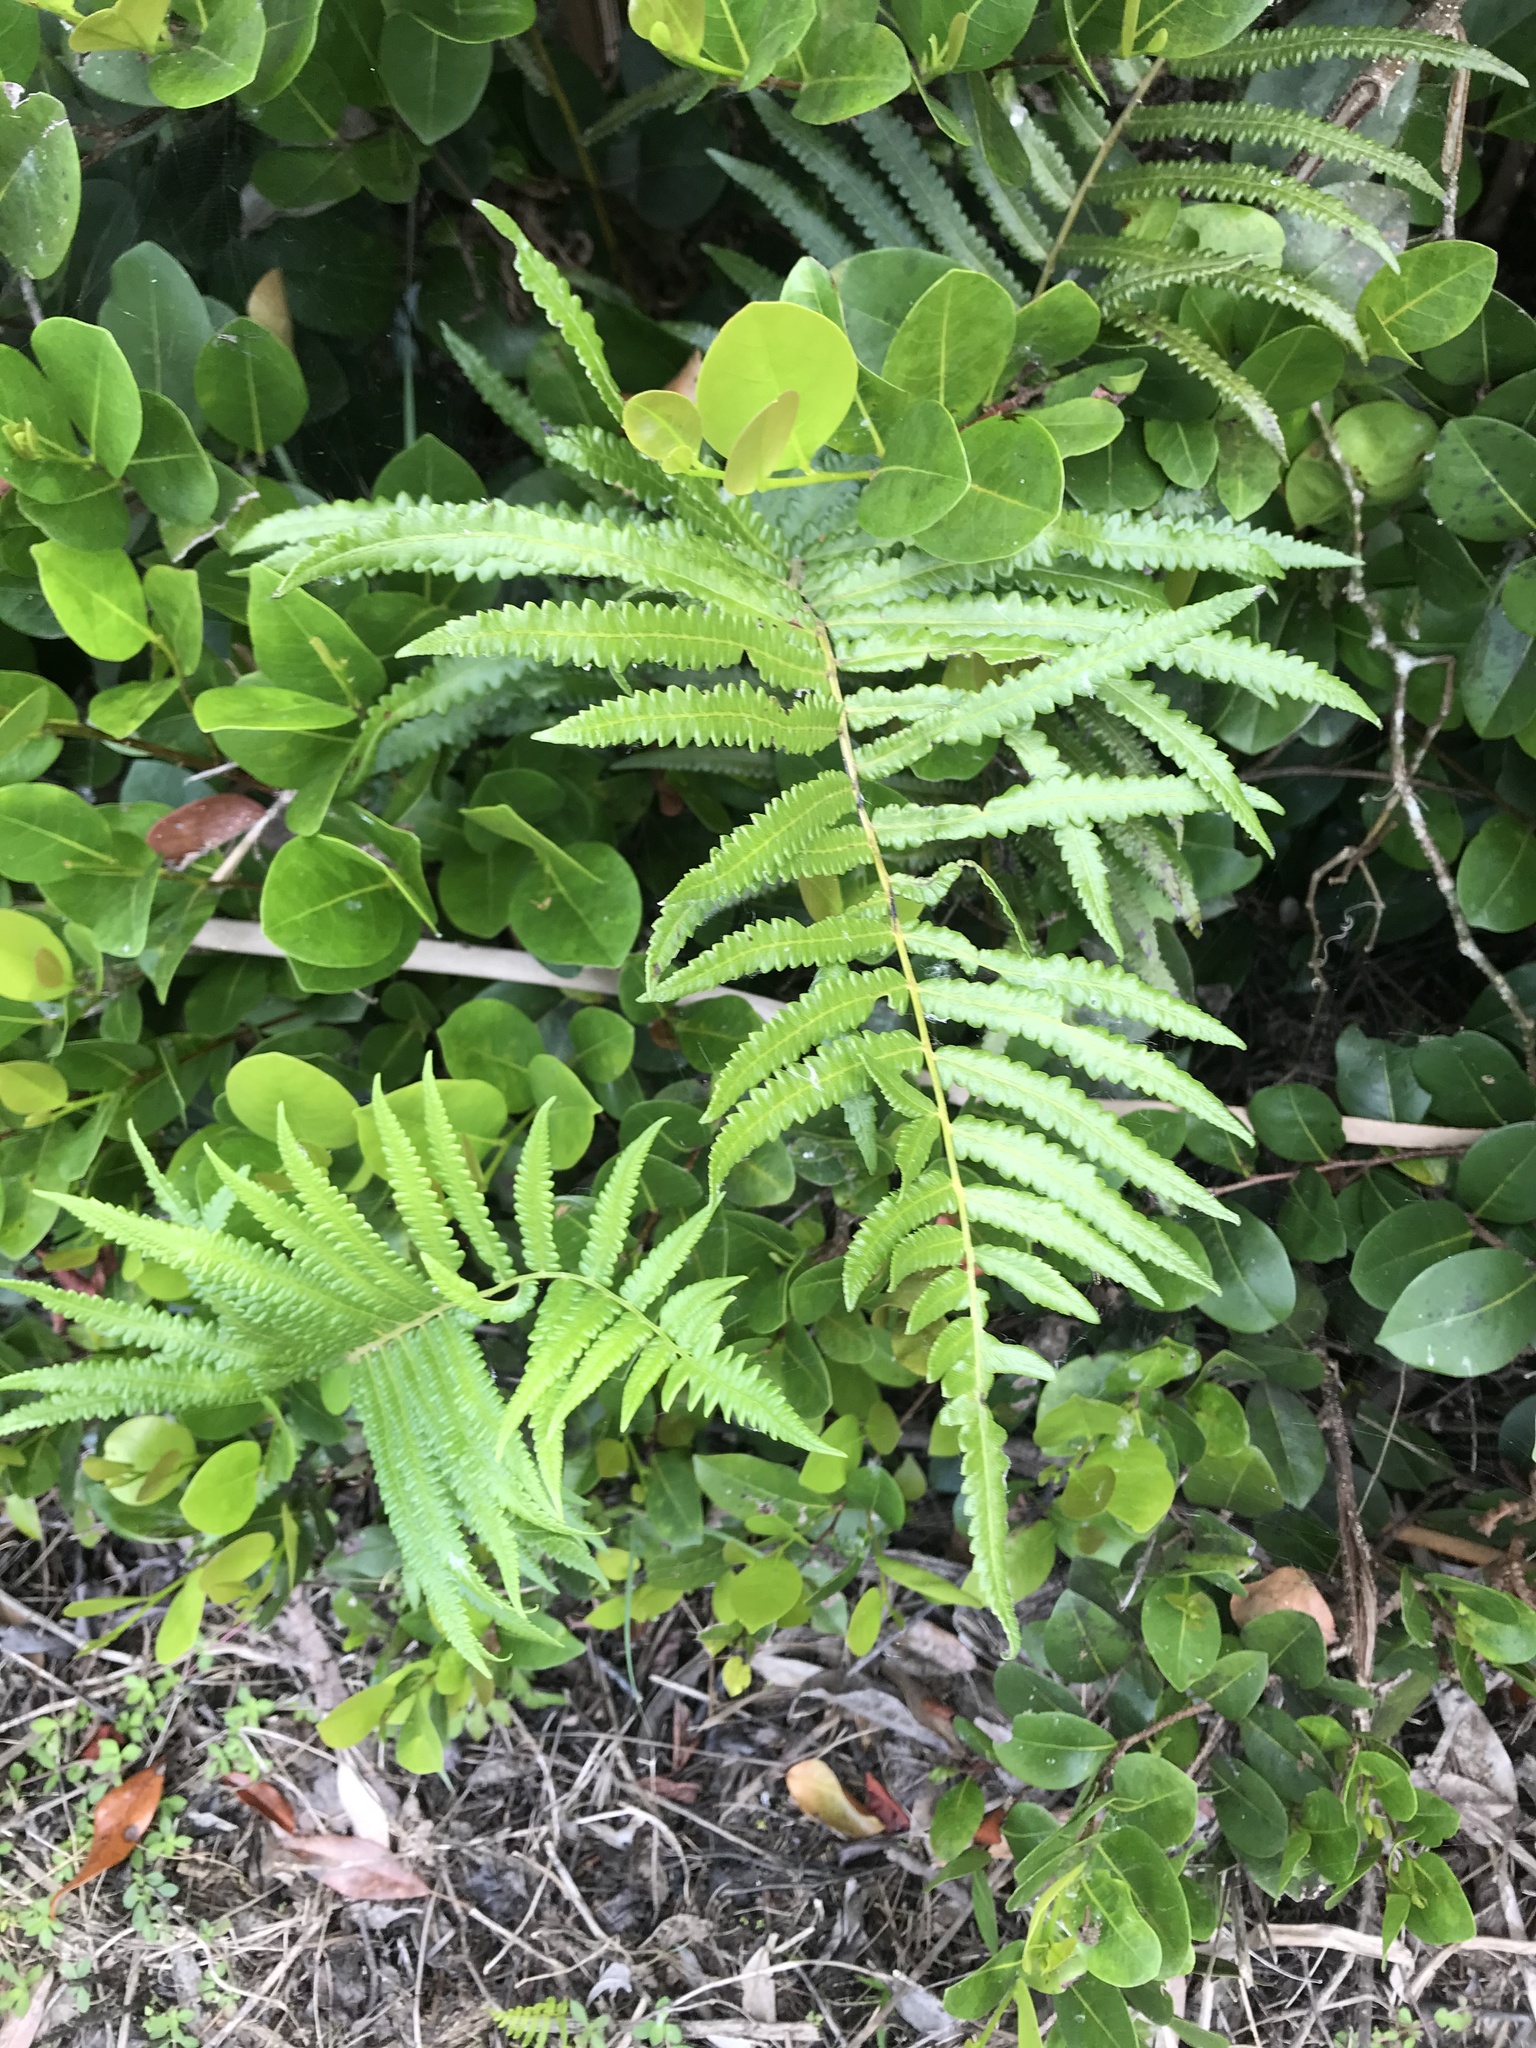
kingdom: Plantae
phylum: Tracheophyta
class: Polypodiopsida
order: Polypodiales
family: Thelypteridaceae
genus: Cyclosorus
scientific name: Cyclosorus interruptus
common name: Neke fern
